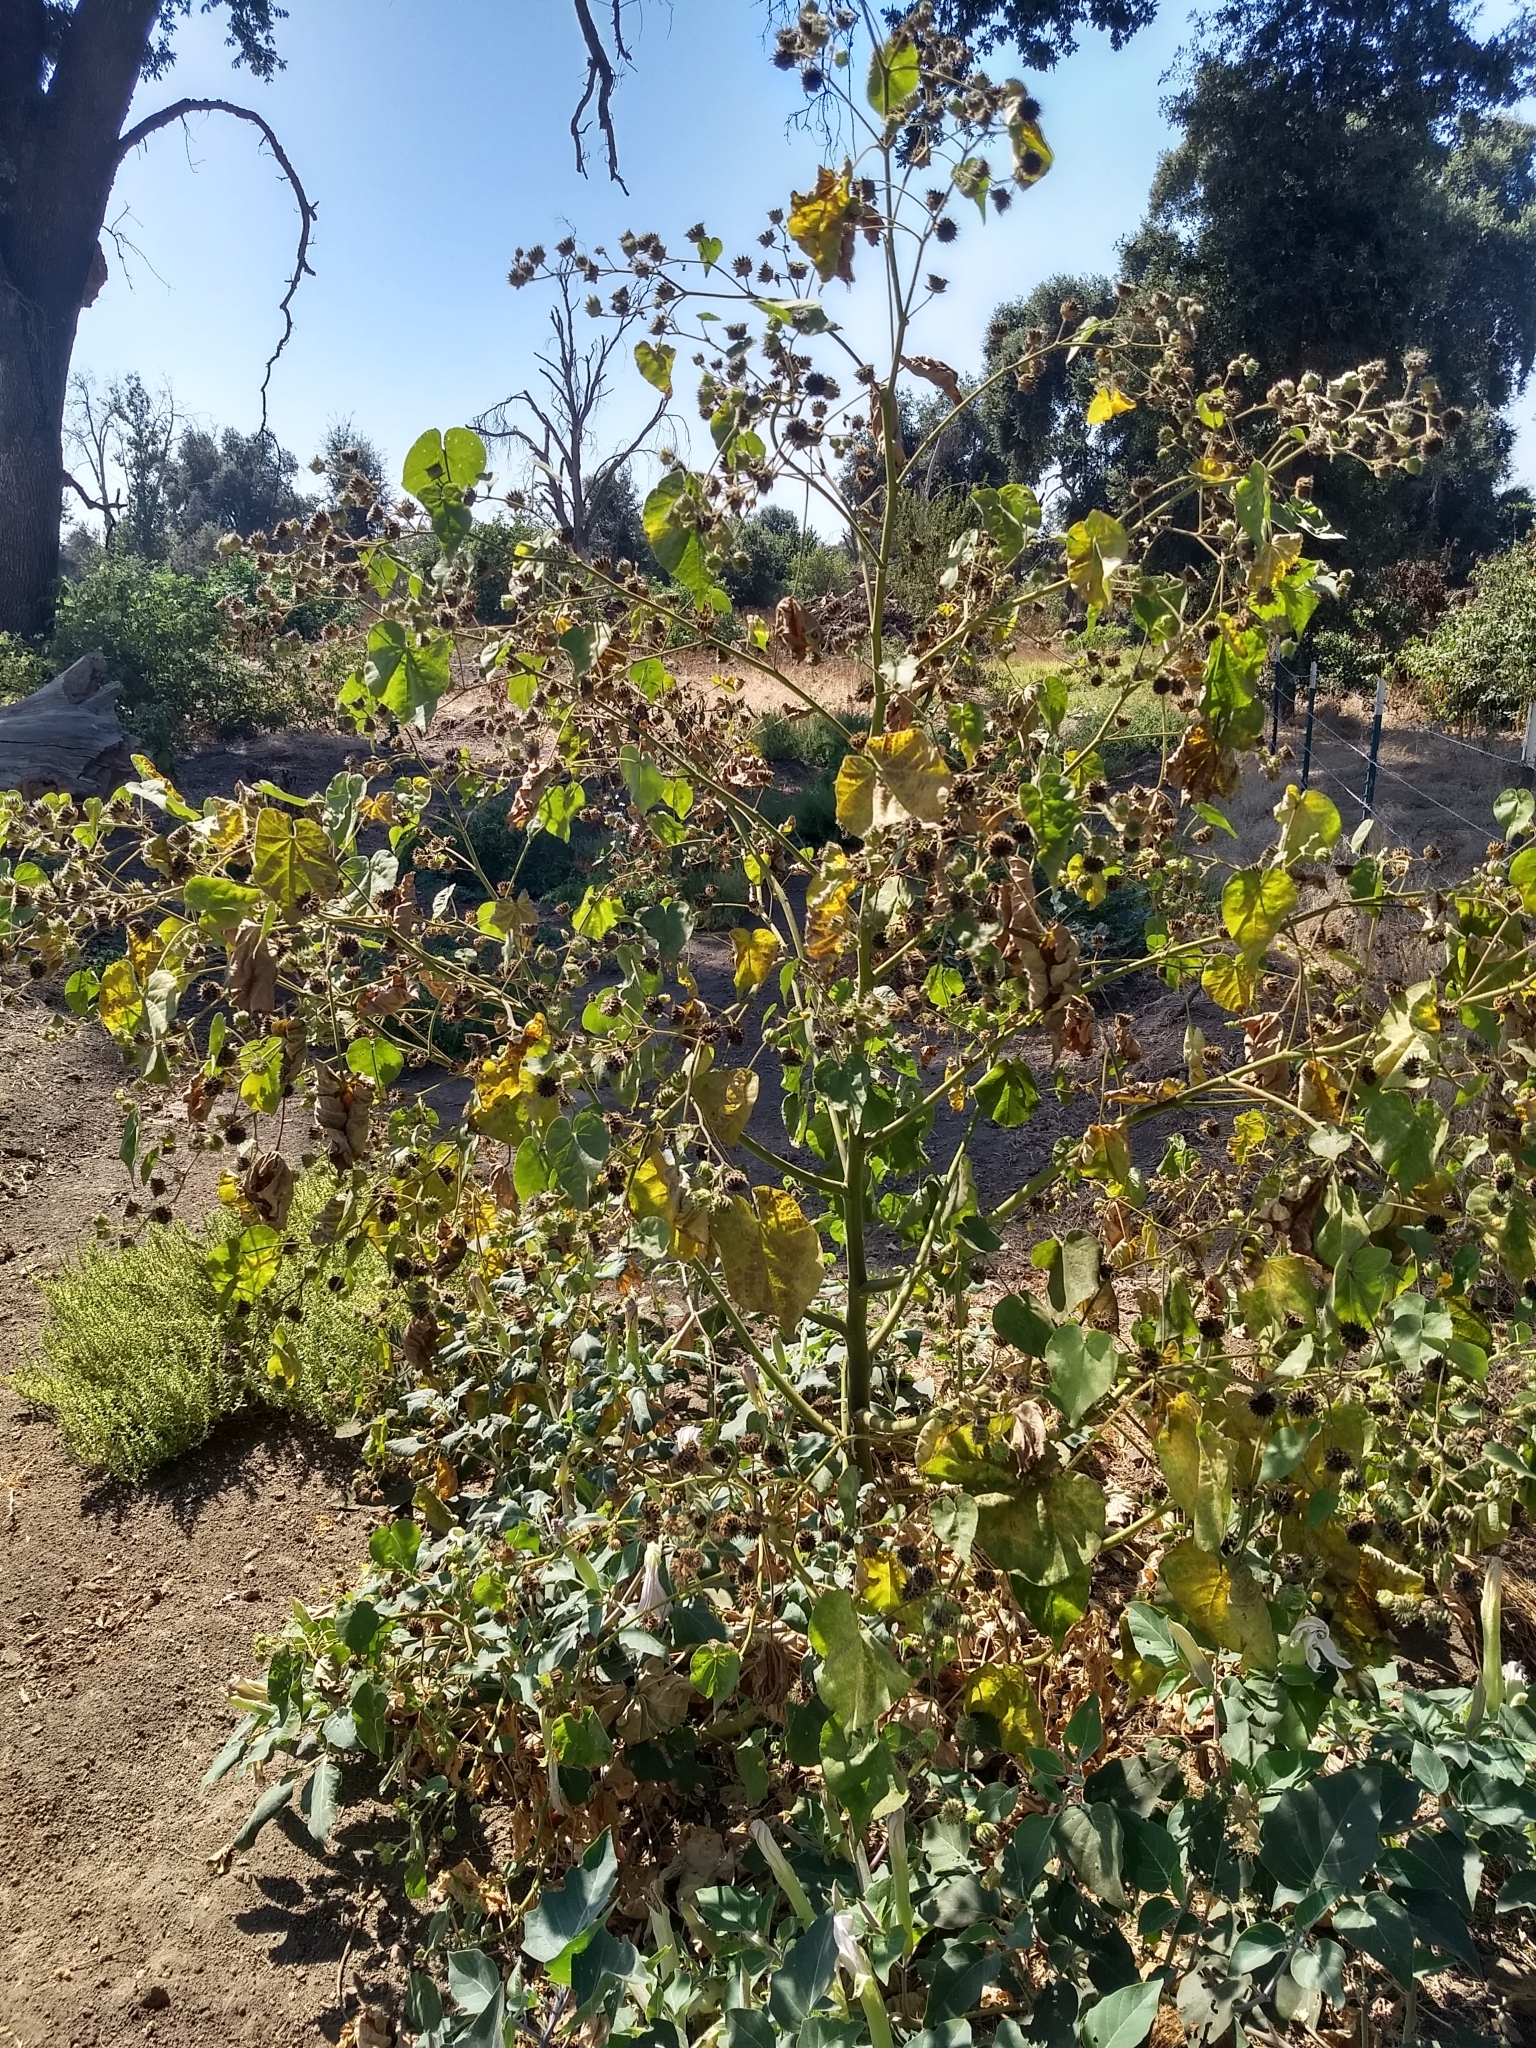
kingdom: Plantae
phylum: Tracheophyta
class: Magnoliopsida
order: Malvales
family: Malvaceae
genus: Abutilon
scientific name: Abutilon theophrasti
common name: Velvetleaf
